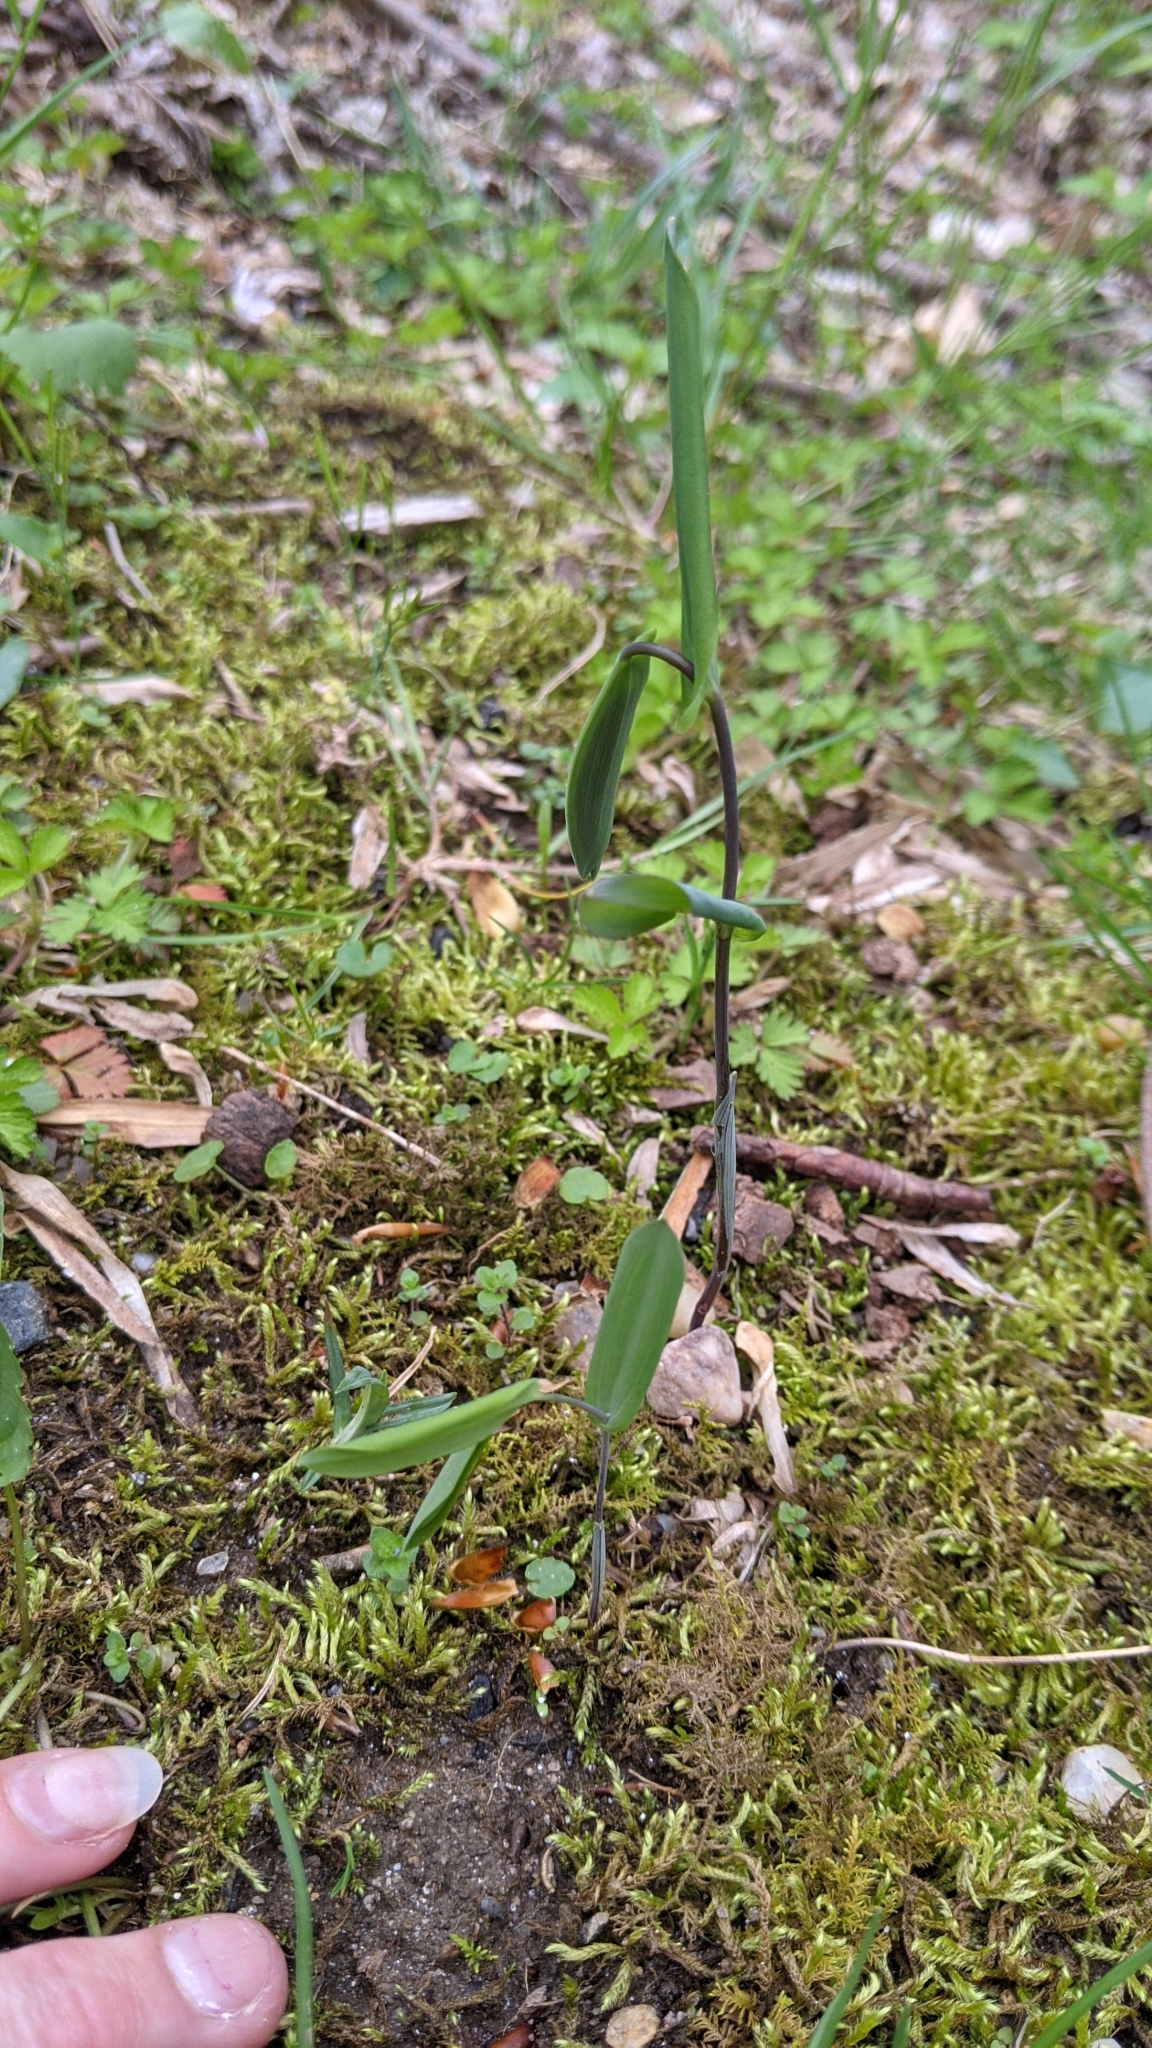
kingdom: Plantae
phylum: Tracheophyta
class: Liliopsida
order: Liliales
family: Colchicaceae
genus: Uvularia
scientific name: Uvularia perfoliata
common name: Perfoliate bellwort
